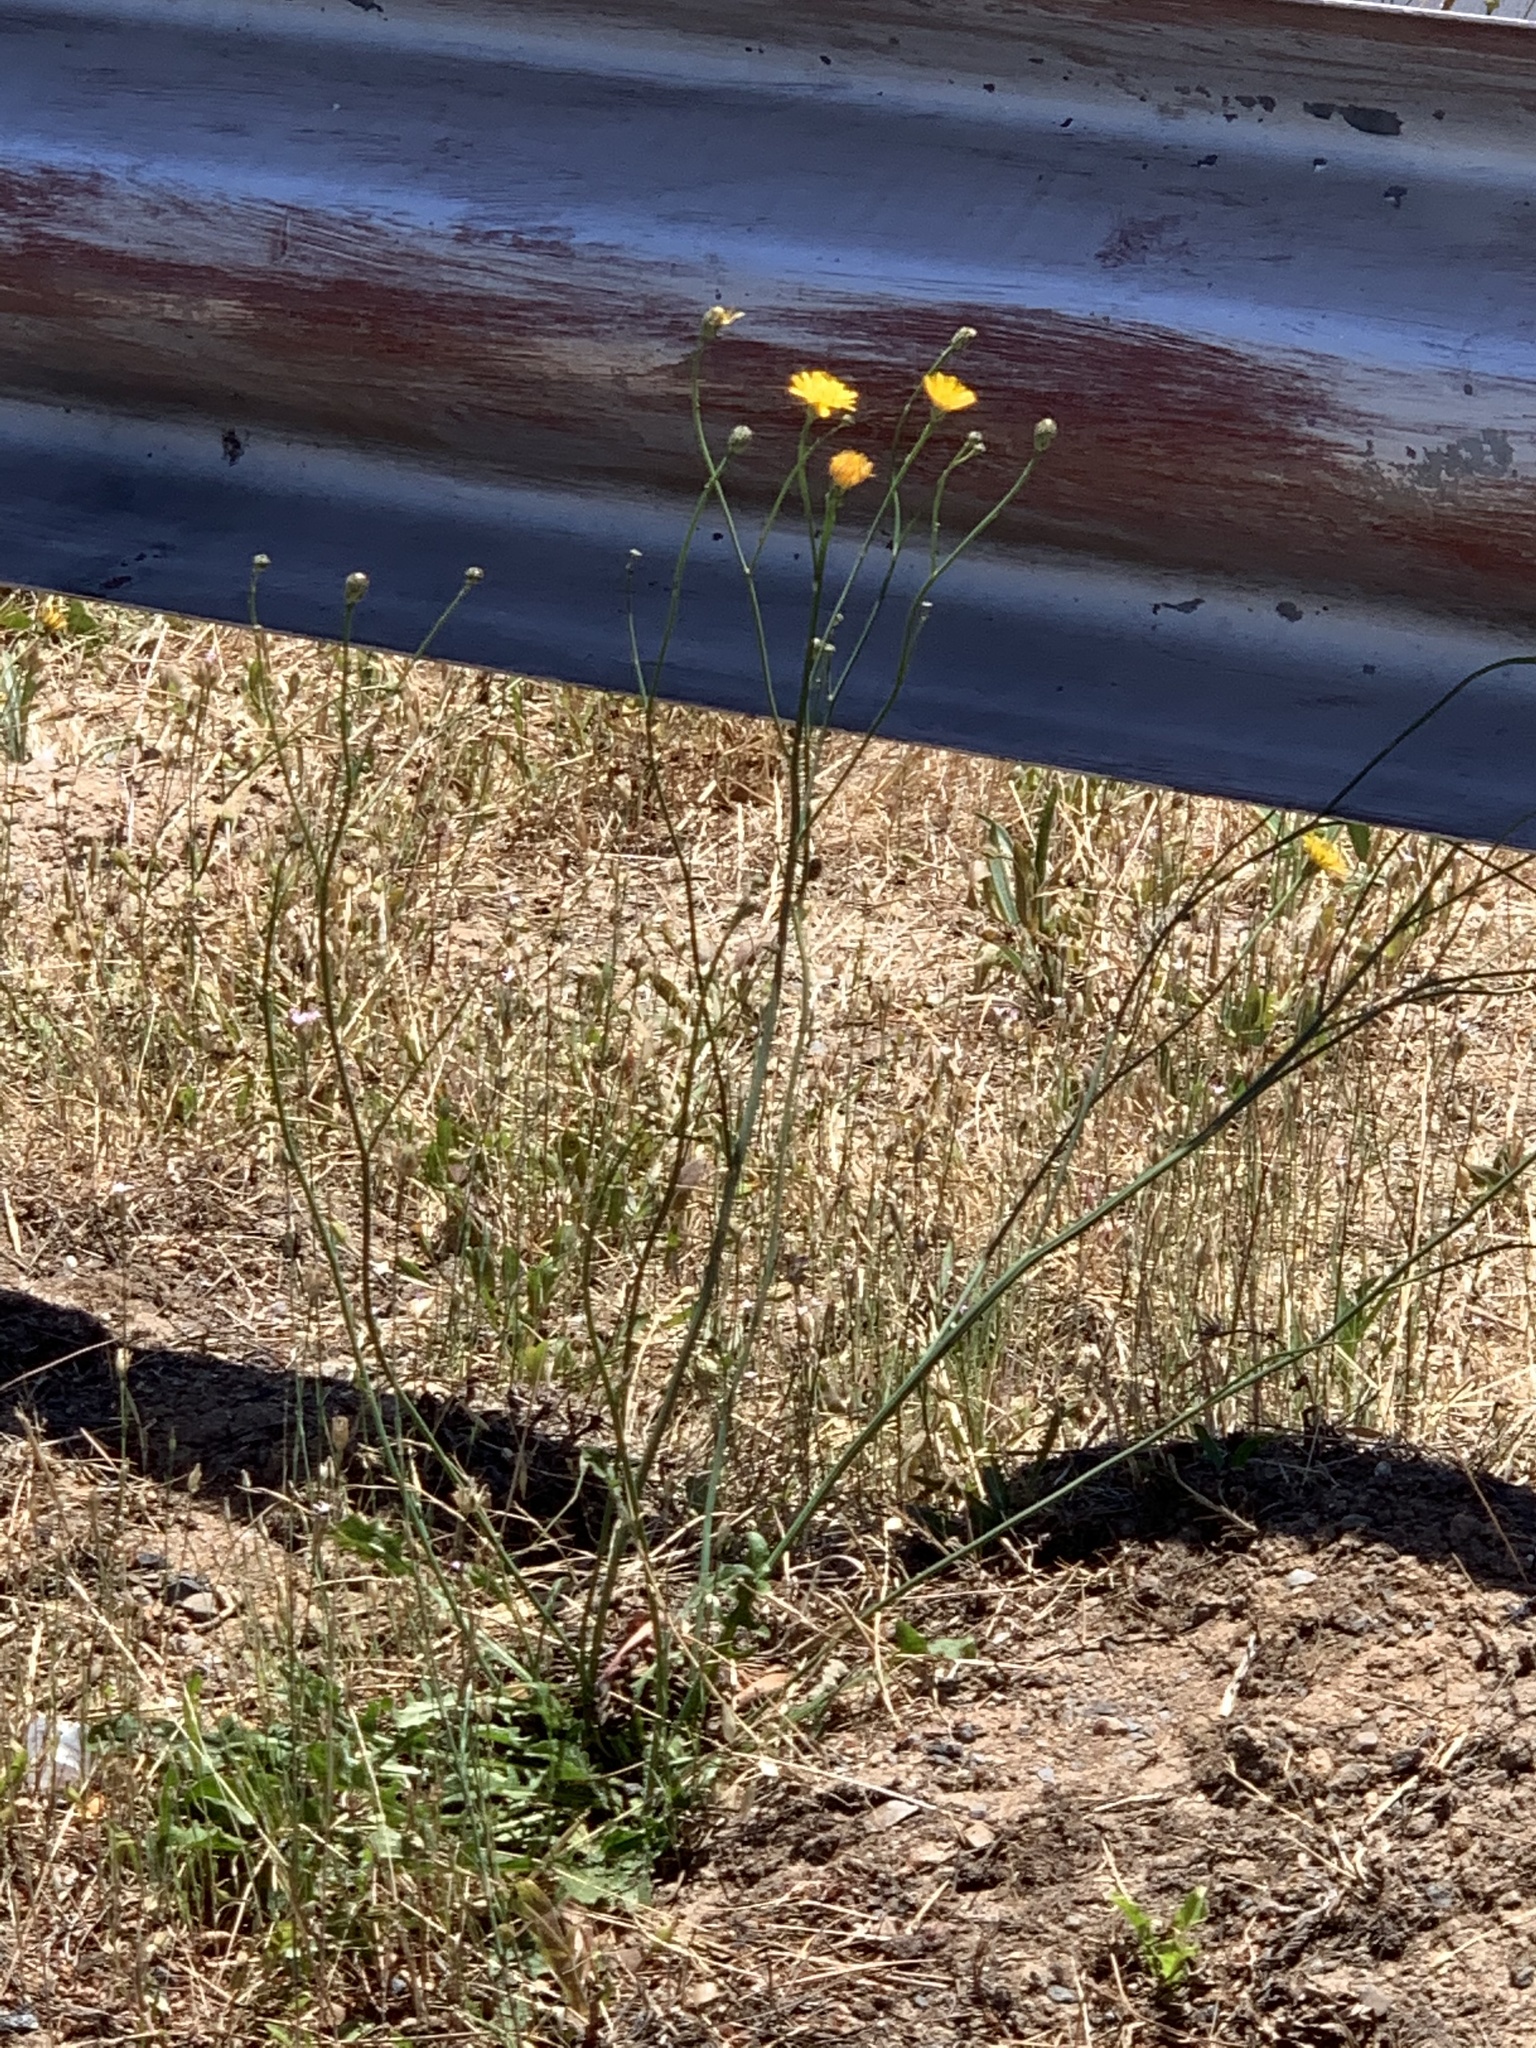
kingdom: Plantae
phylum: Tracheophyta
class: Magnoliopsida
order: Asterales
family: Asteraceae
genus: Hypochaeris
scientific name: Hypochaeris radicata
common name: Flatweed
